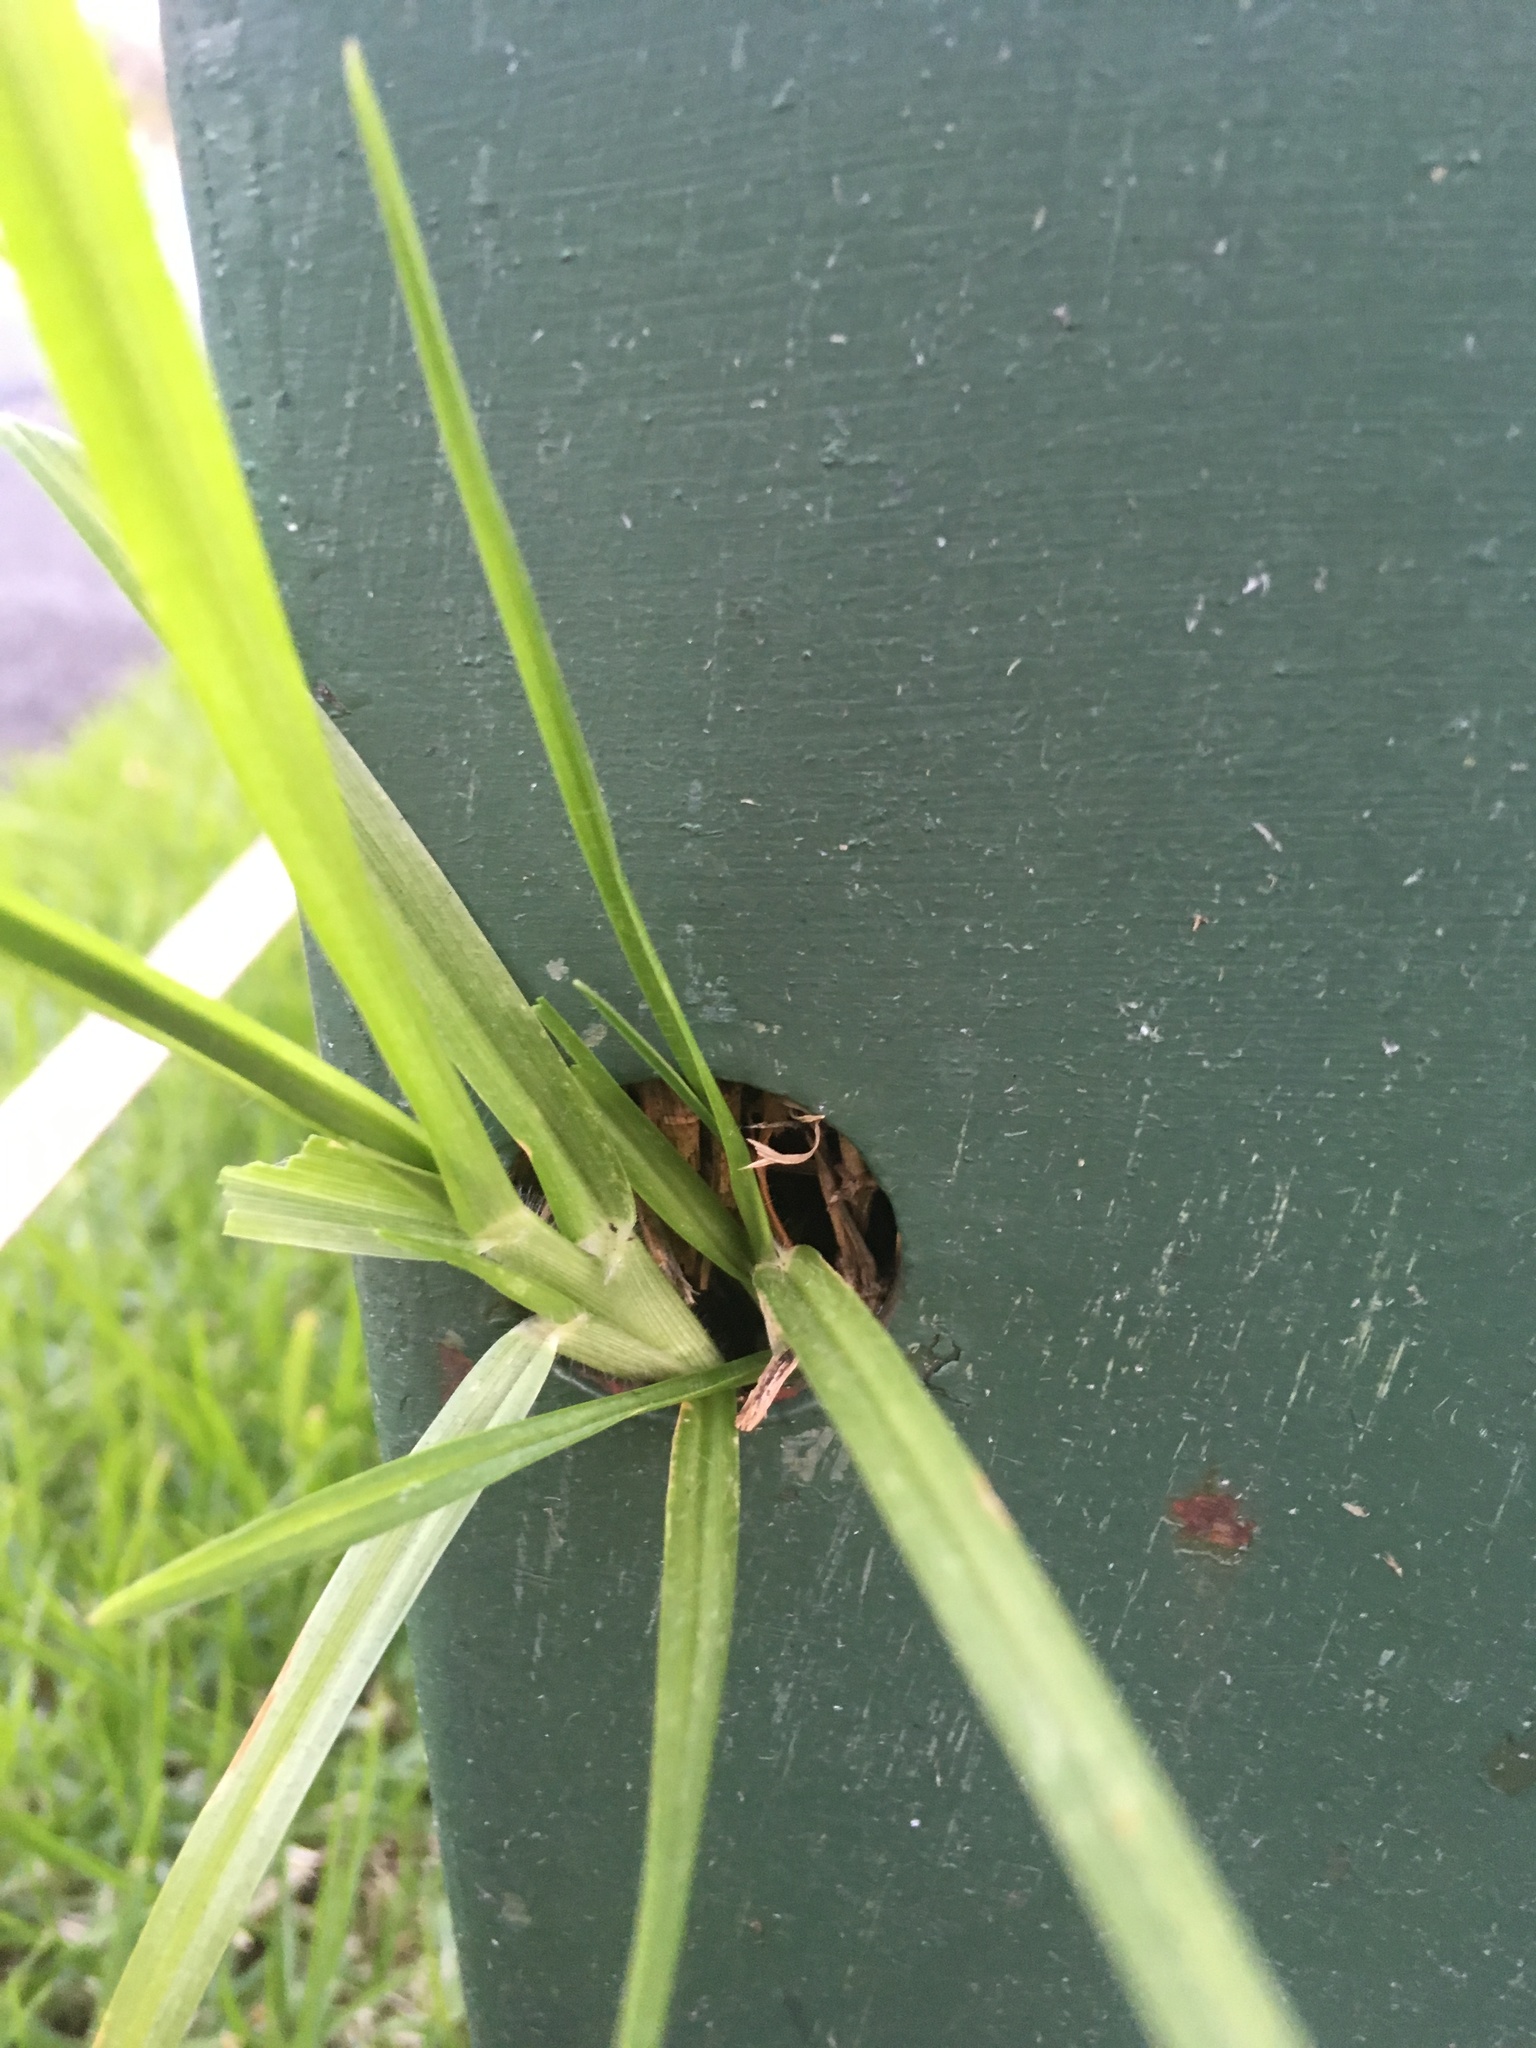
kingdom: Plantae
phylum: Tracheophyta
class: Liliopsida
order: Poales
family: Poaceae
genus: Cenchrus
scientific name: Cenchrus clandestinus
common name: Kikuyugrass
